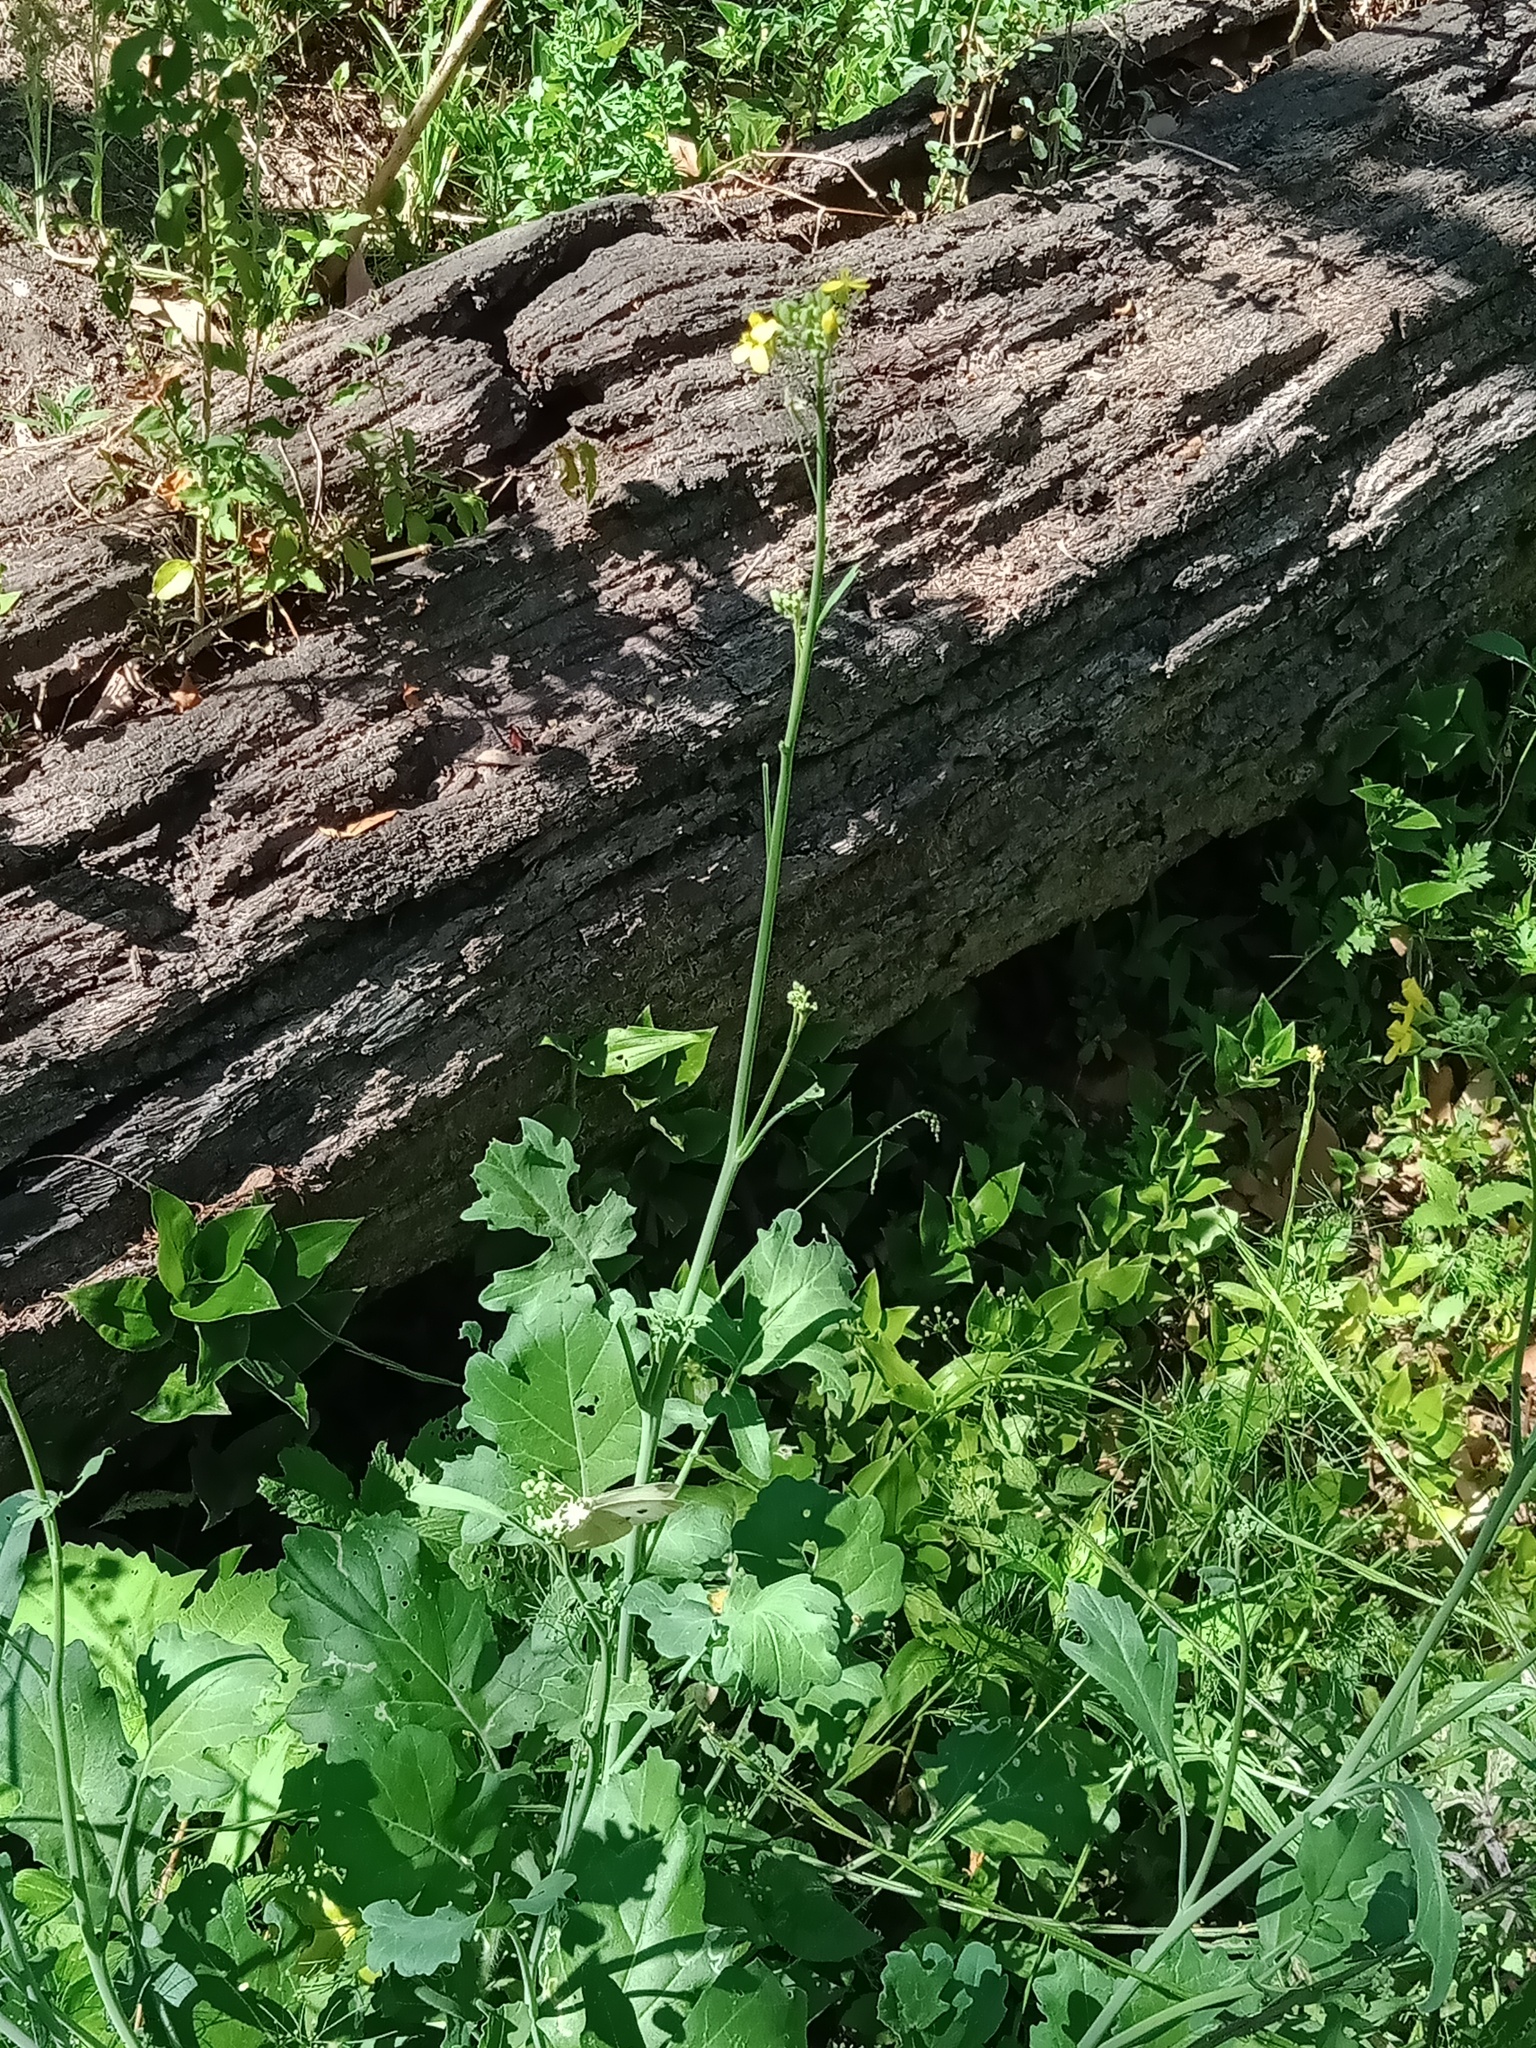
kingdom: Animalia
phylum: Arthropoda
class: Insecta
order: Lepidoptera
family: Pieridae
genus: Pieris
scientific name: Pieris rapae
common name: Small white
